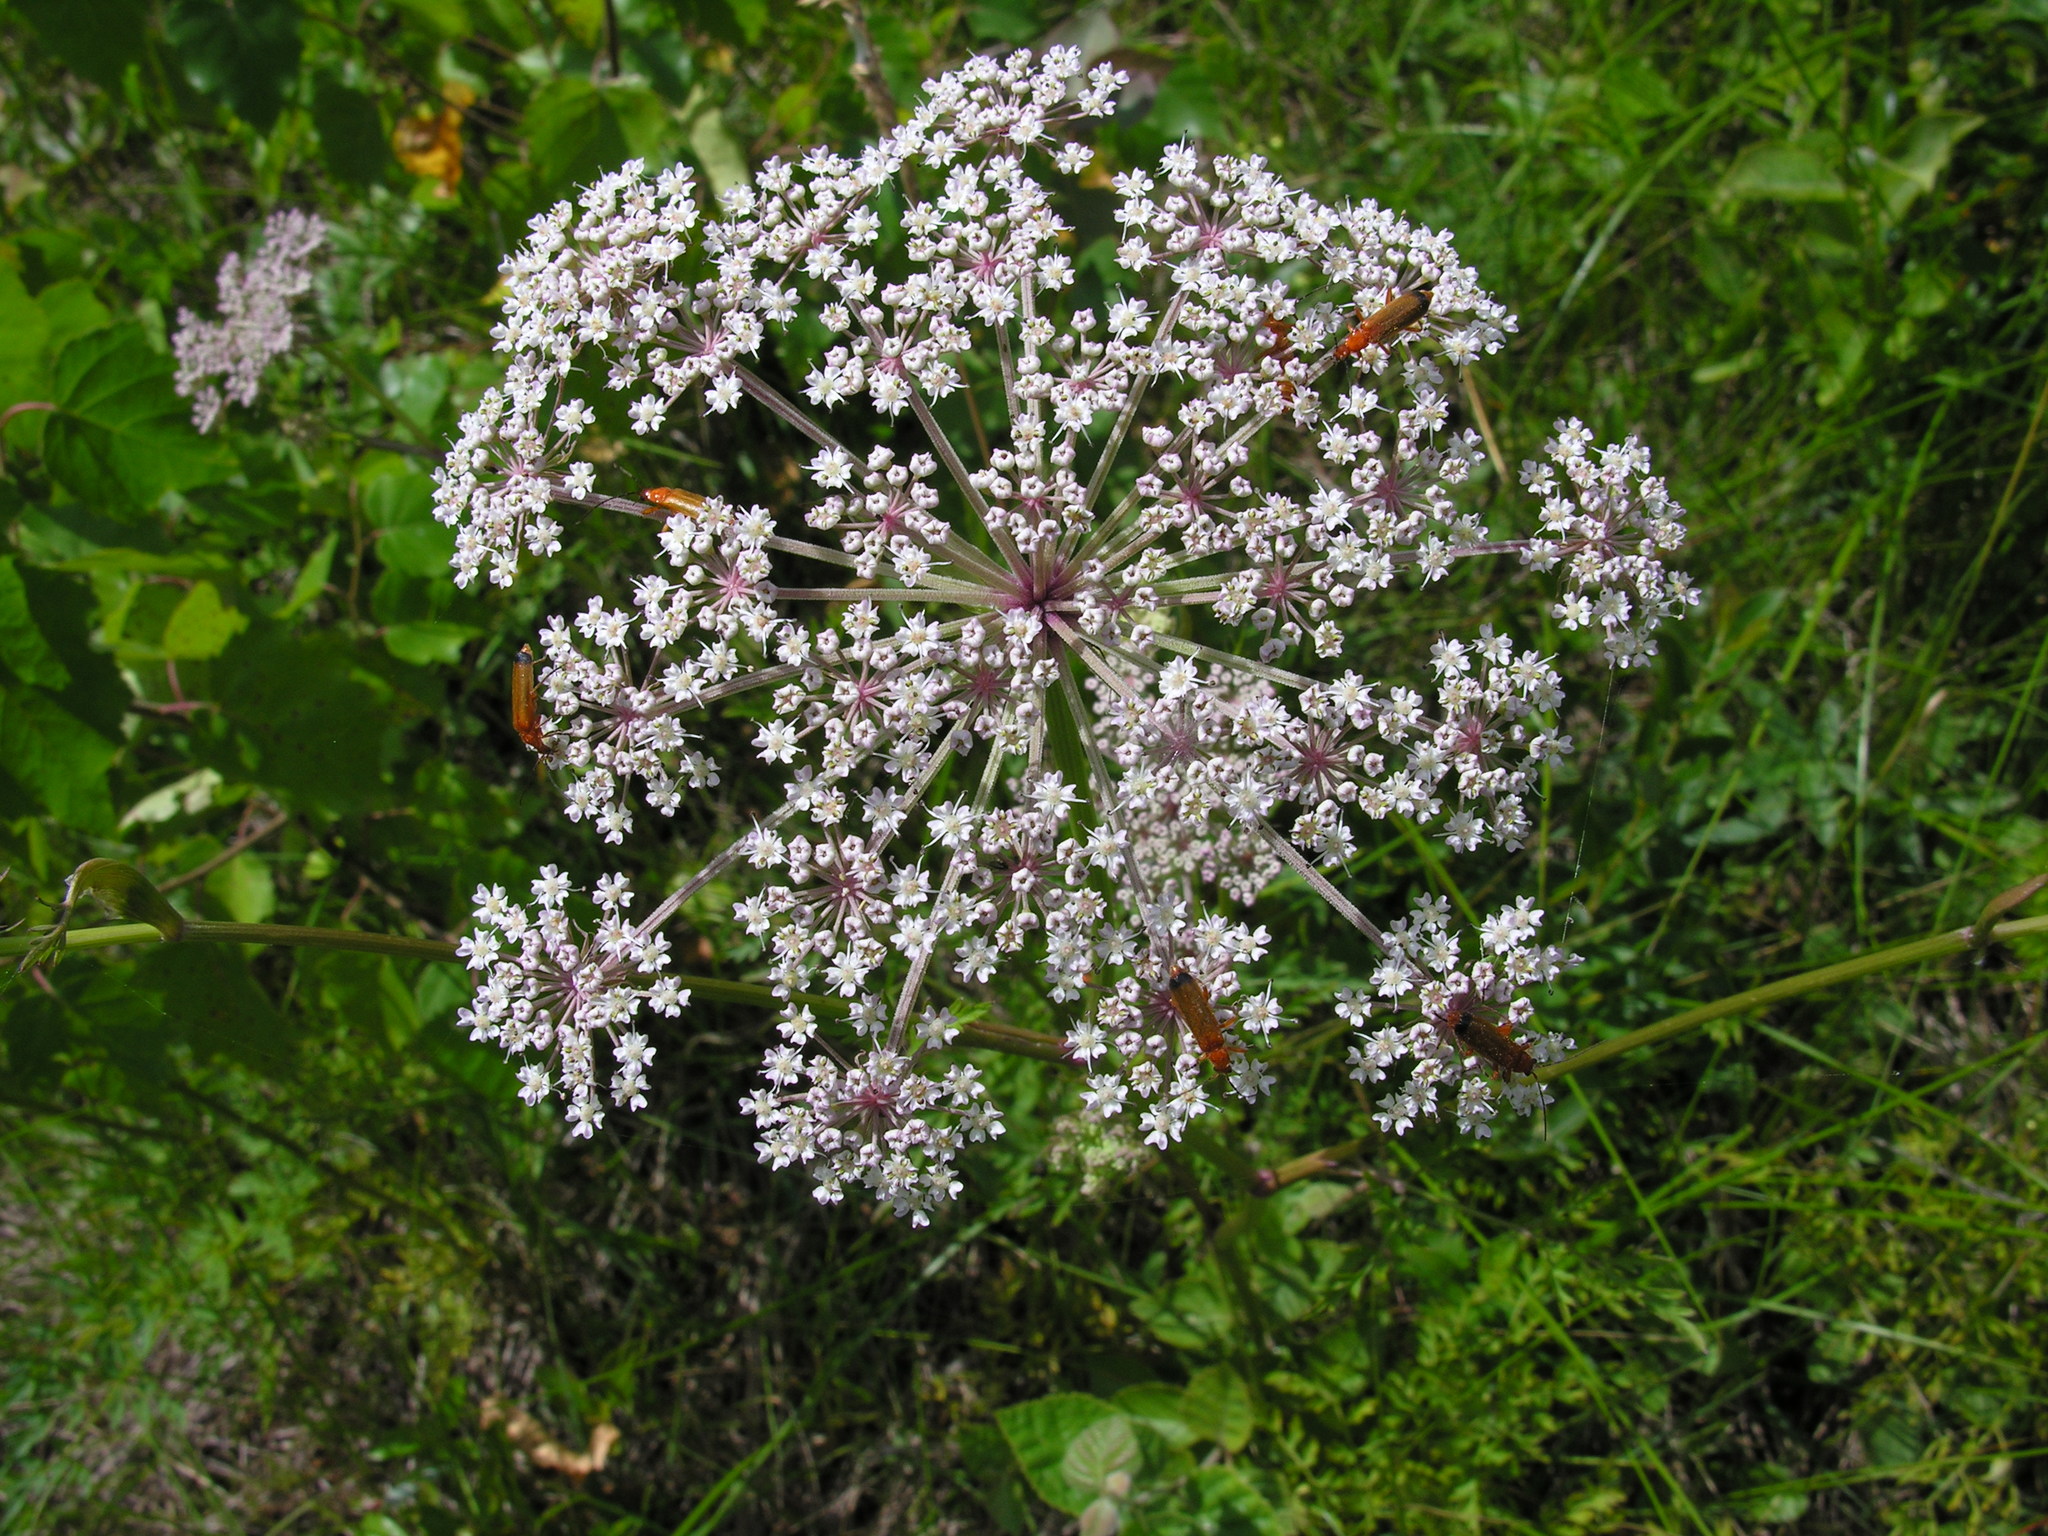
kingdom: Plantae
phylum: Tracheophyta
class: Magnoliopsida
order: Apiales
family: Apiaceae
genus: Angelica
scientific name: Angelica sylvestris
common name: Wild angelica
